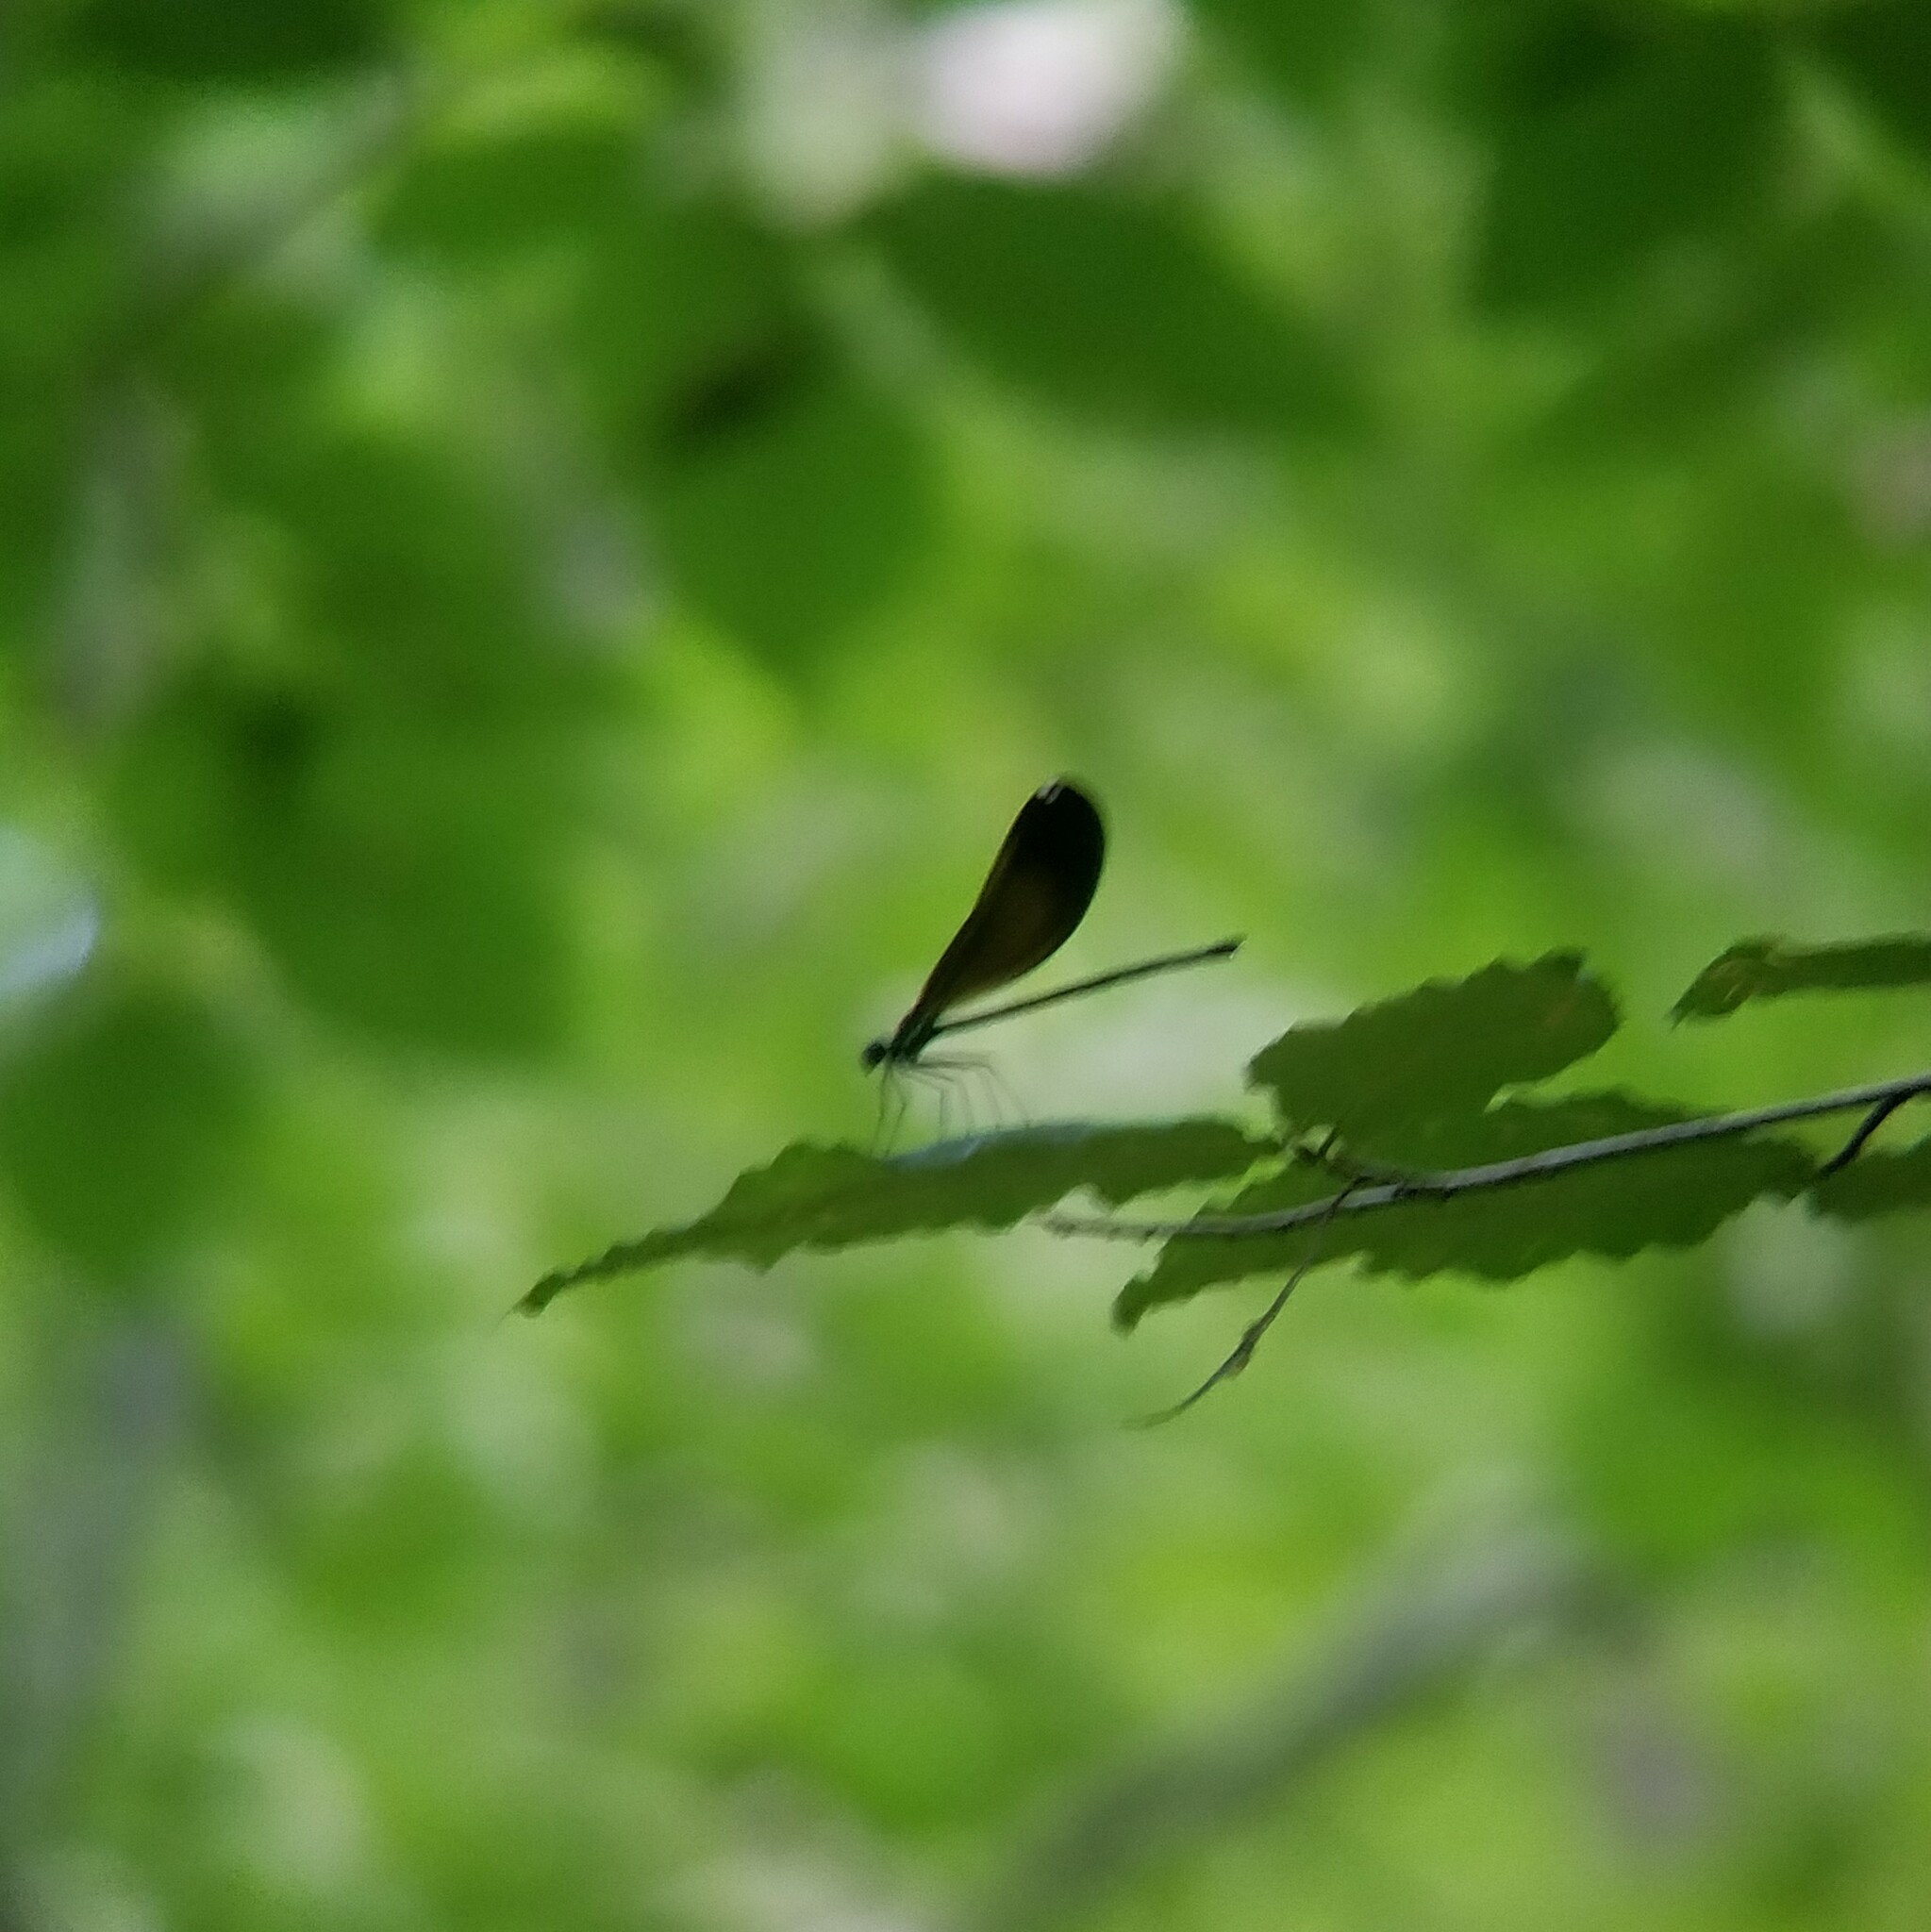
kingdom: Animalia
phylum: Arthropoda
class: Insecta
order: Odonata
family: Calopterygidae
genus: Calopteryx
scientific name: Calopteryx maculata
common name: Ebony jewelwing
